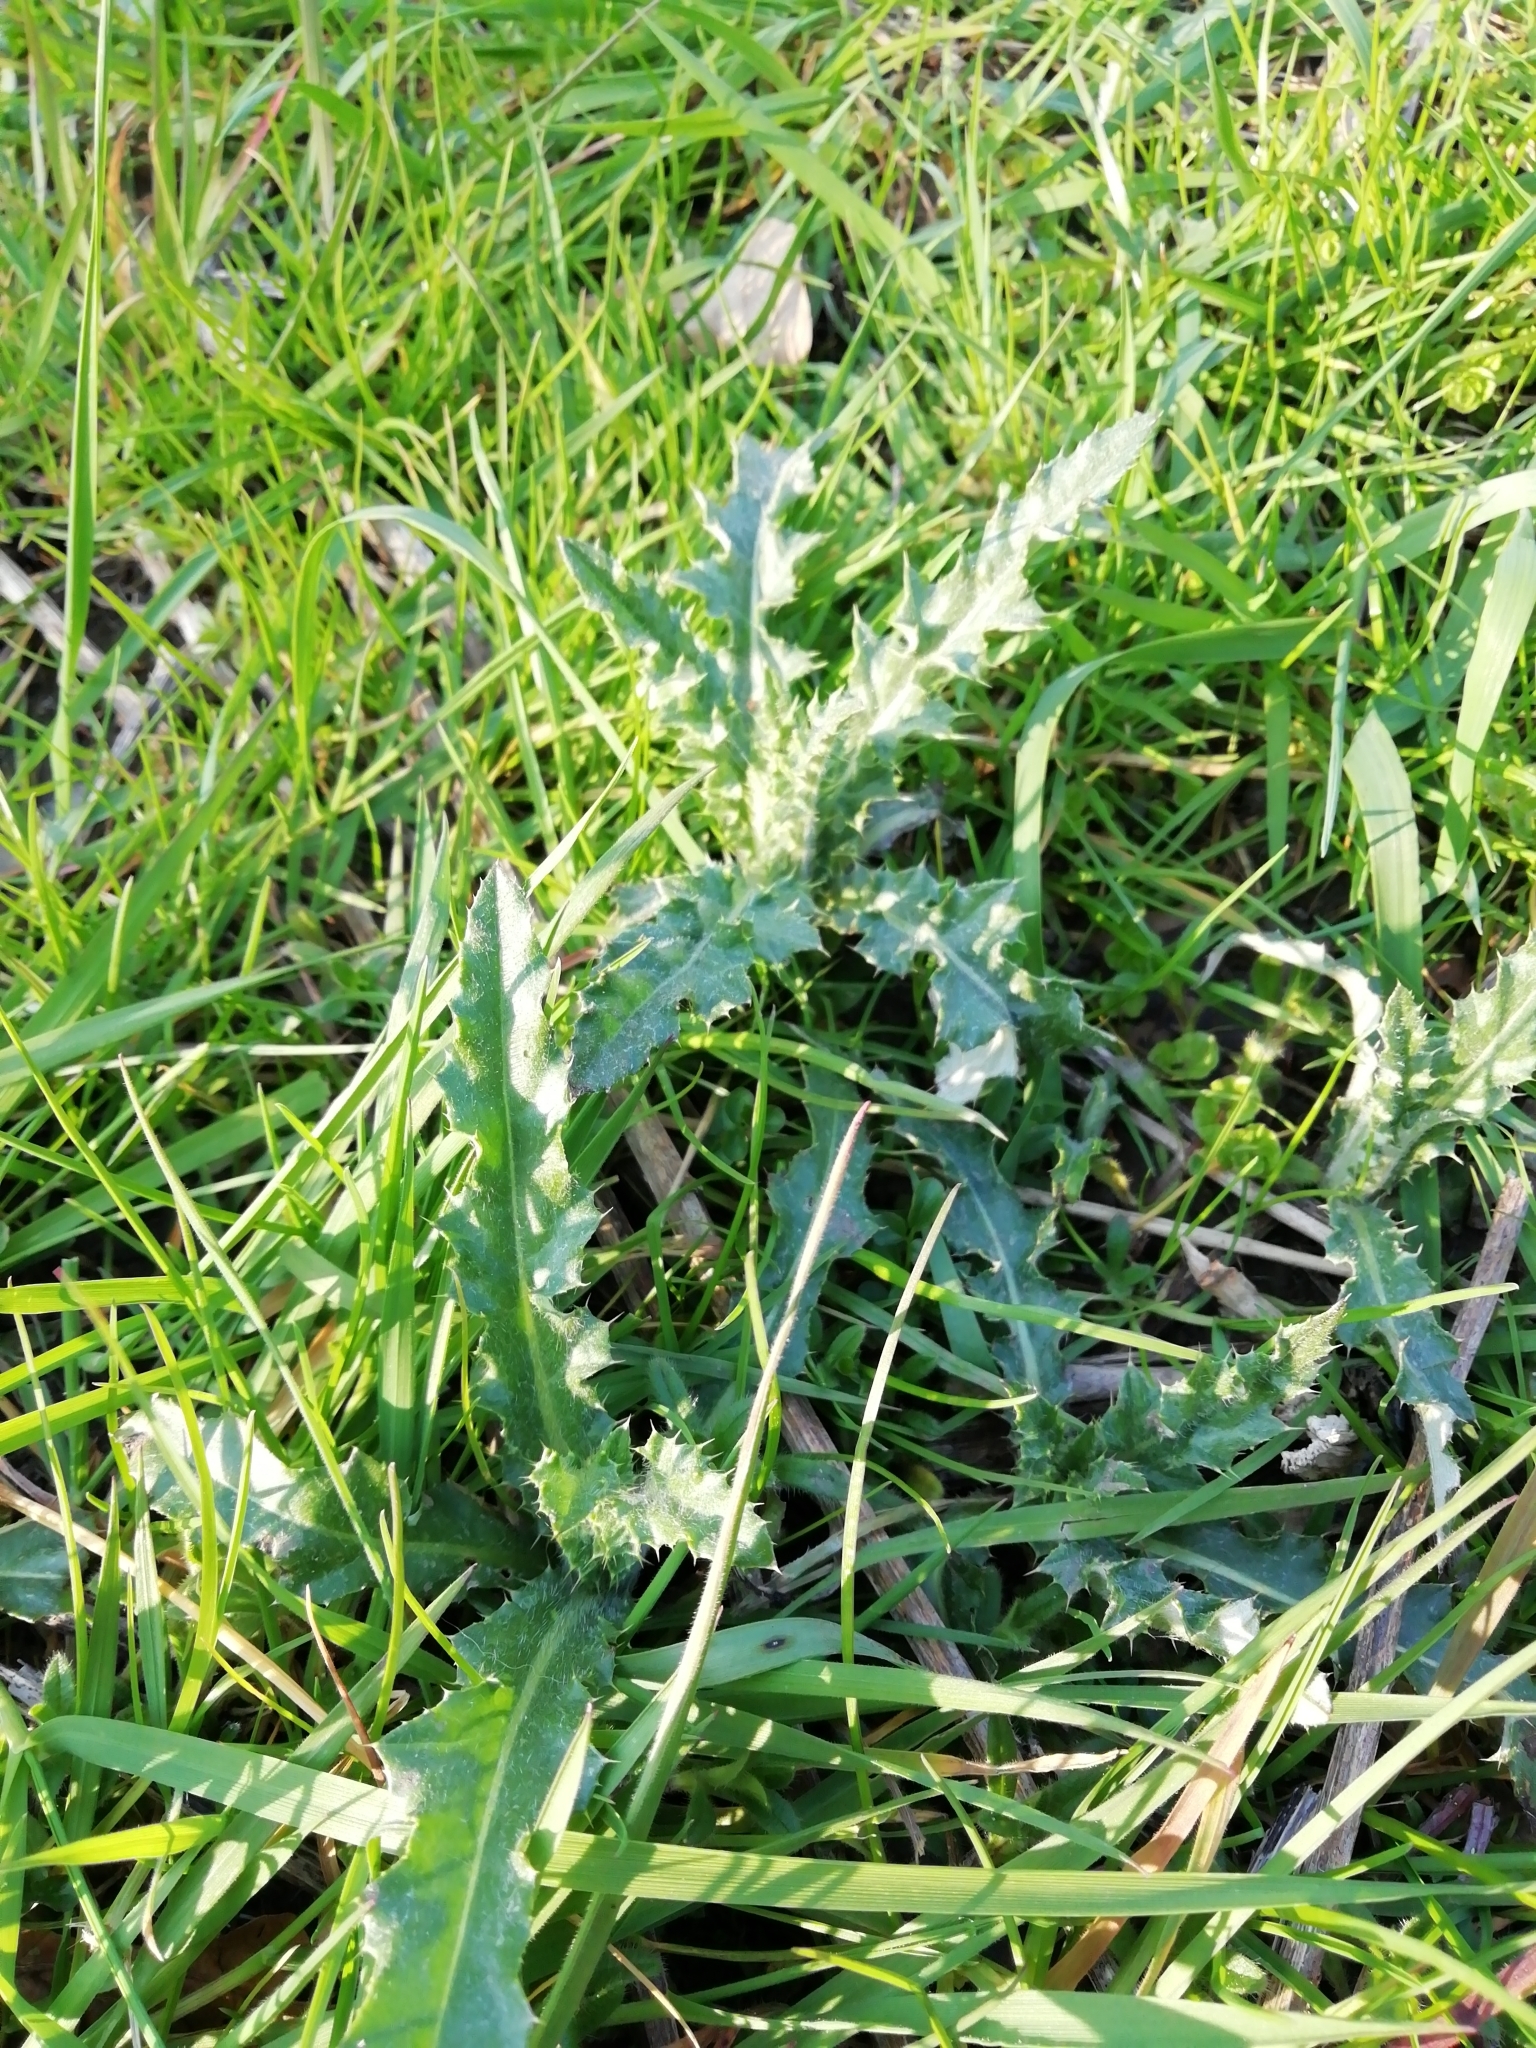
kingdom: Plantae
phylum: Tracheophyta
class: Magnoliopsida
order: Asterales
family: Asteraceae
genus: Cirsium
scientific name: Cirsium arvense
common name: Creeping thistle
